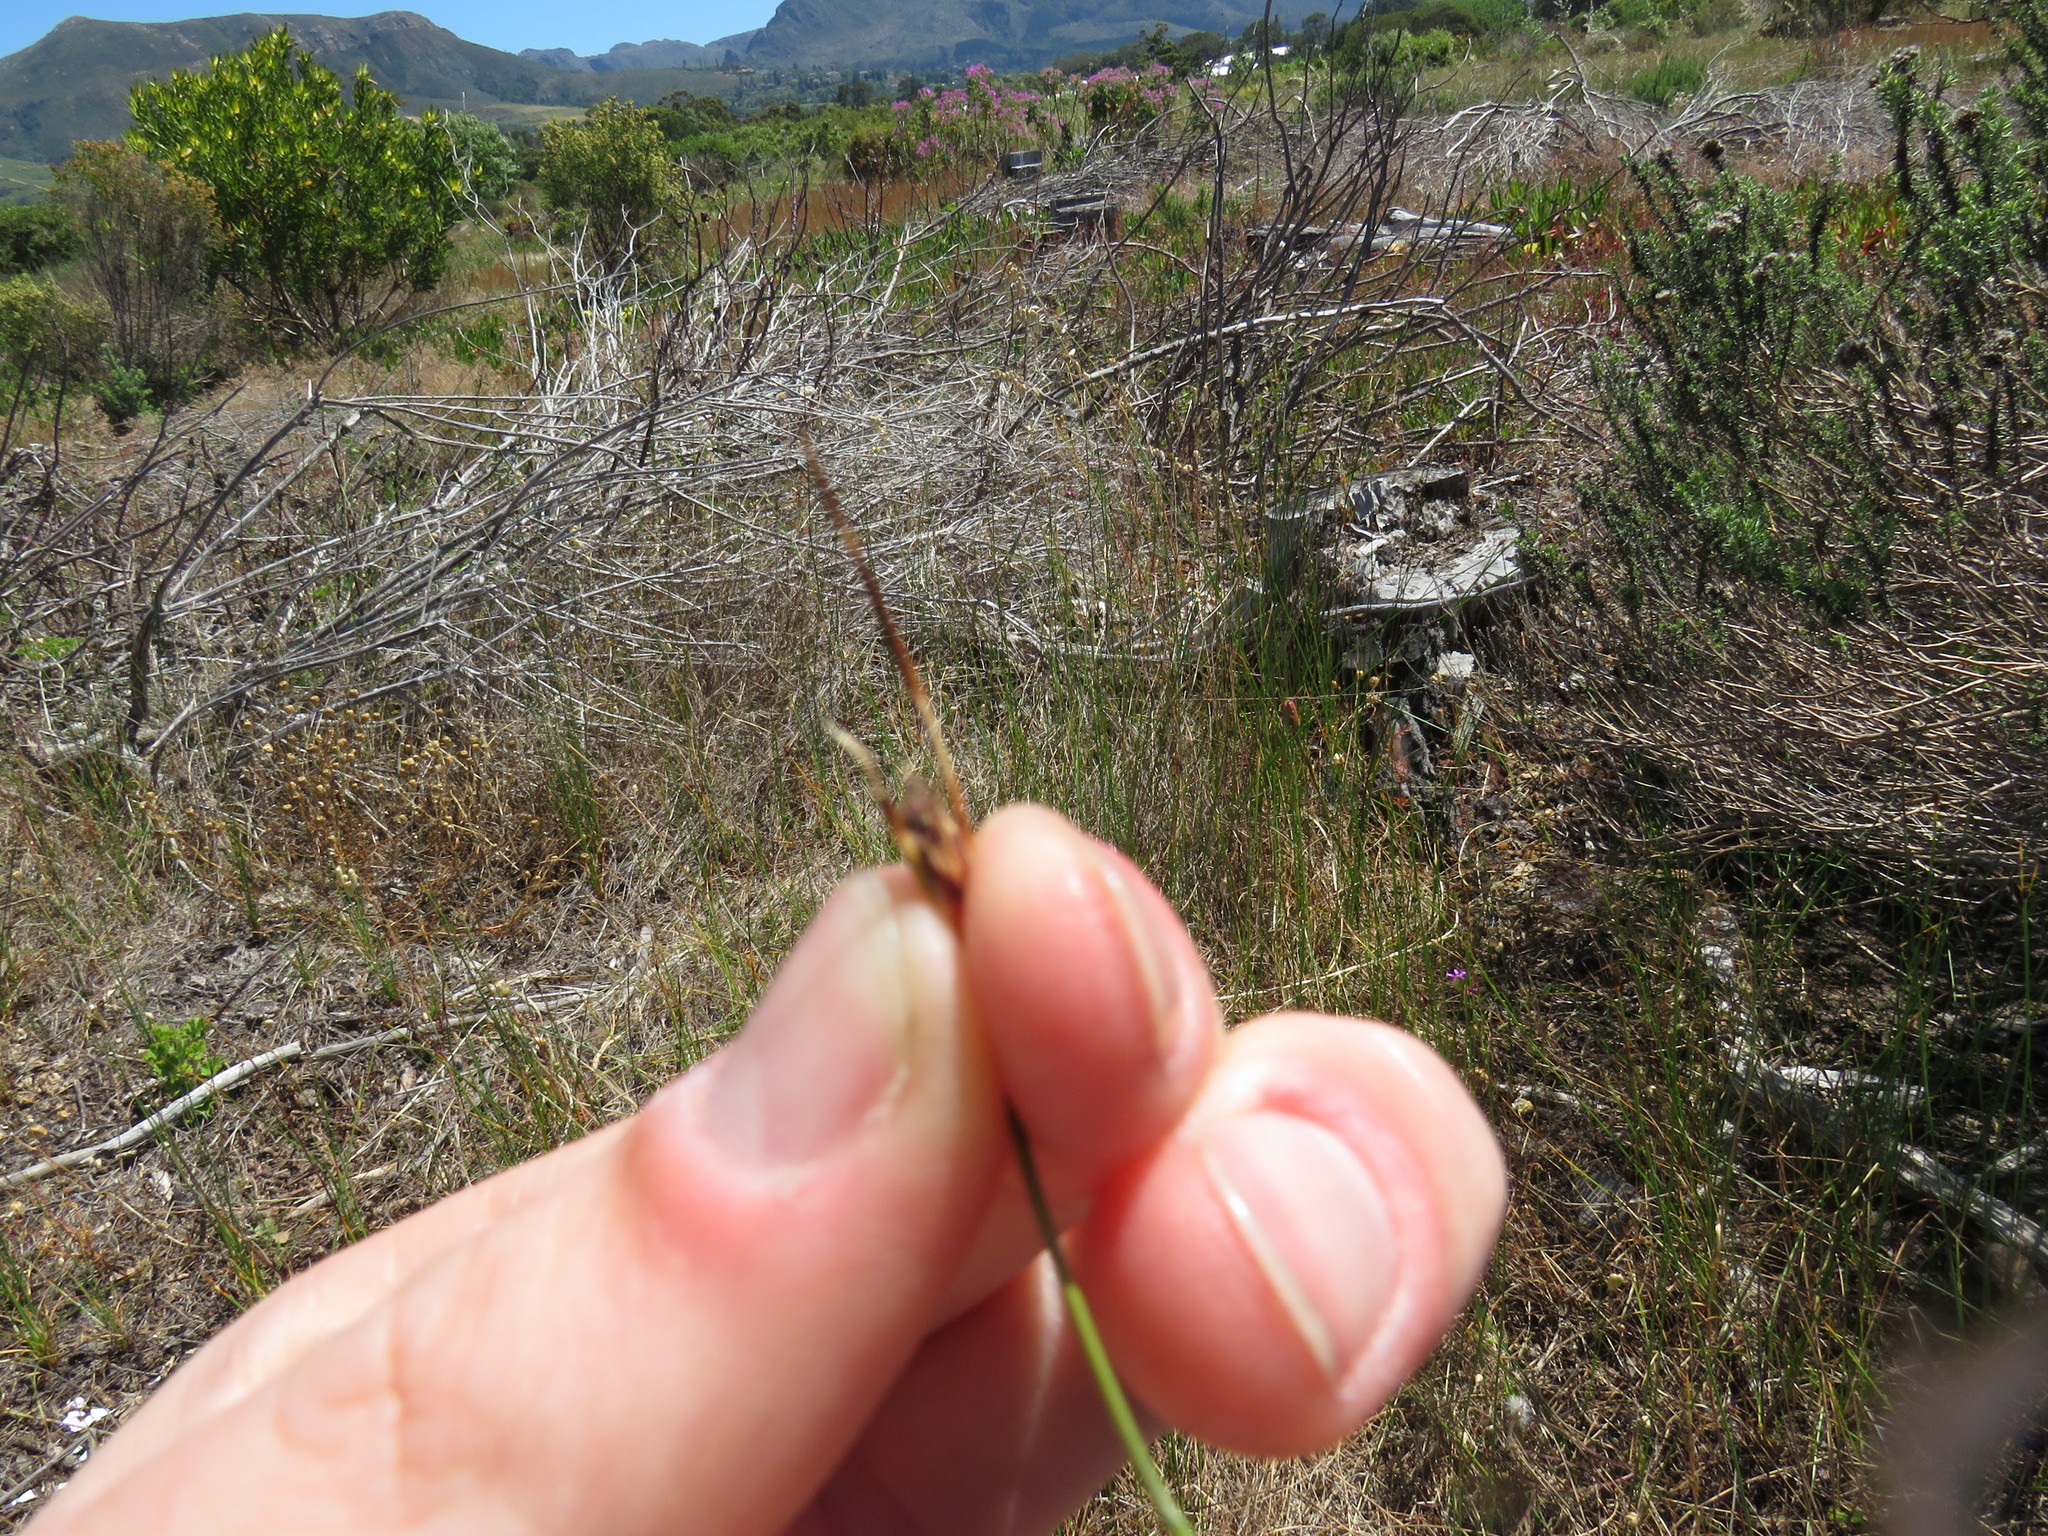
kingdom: Plantae
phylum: Tracheophyta
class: Liliopsida
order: Poales
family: Cyperaceae
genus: Ficinia
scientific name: Ficinia indica
